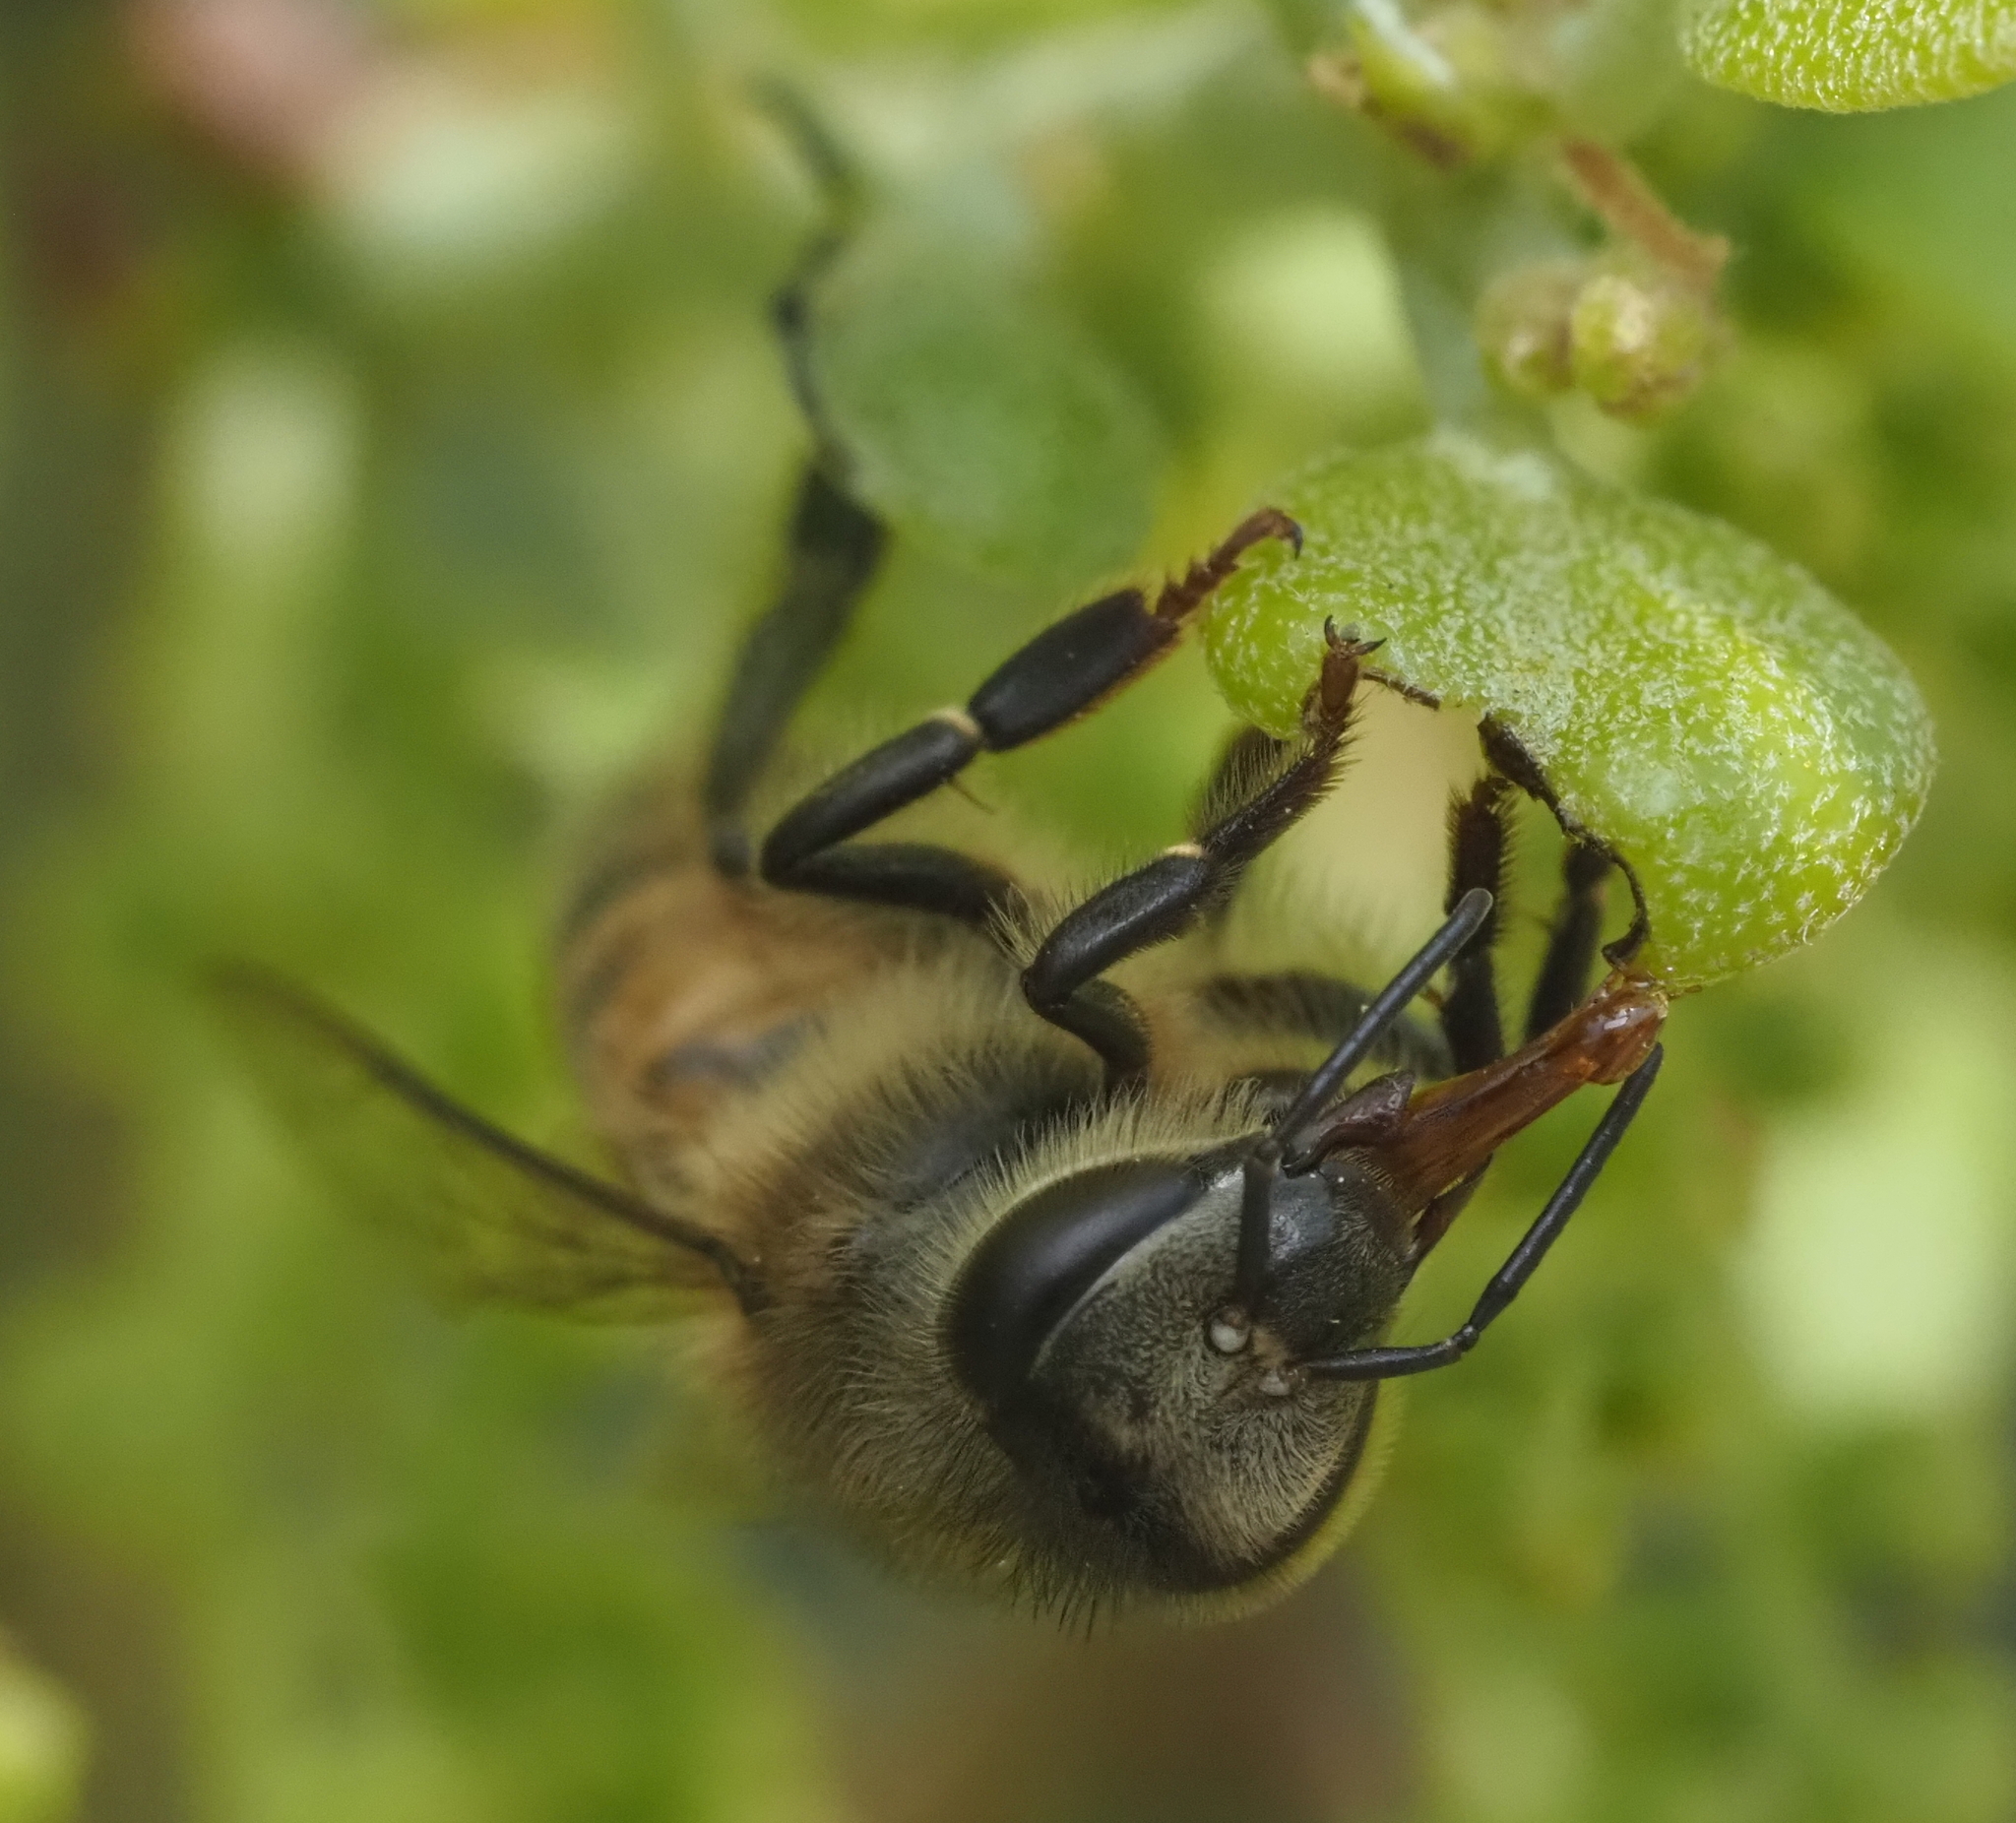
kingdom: Animalia
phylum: Arthropoda
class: Insecta
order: Hymenoptera
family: Apidae
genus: Apis
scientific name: Apis mellifera
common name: Honey bee
